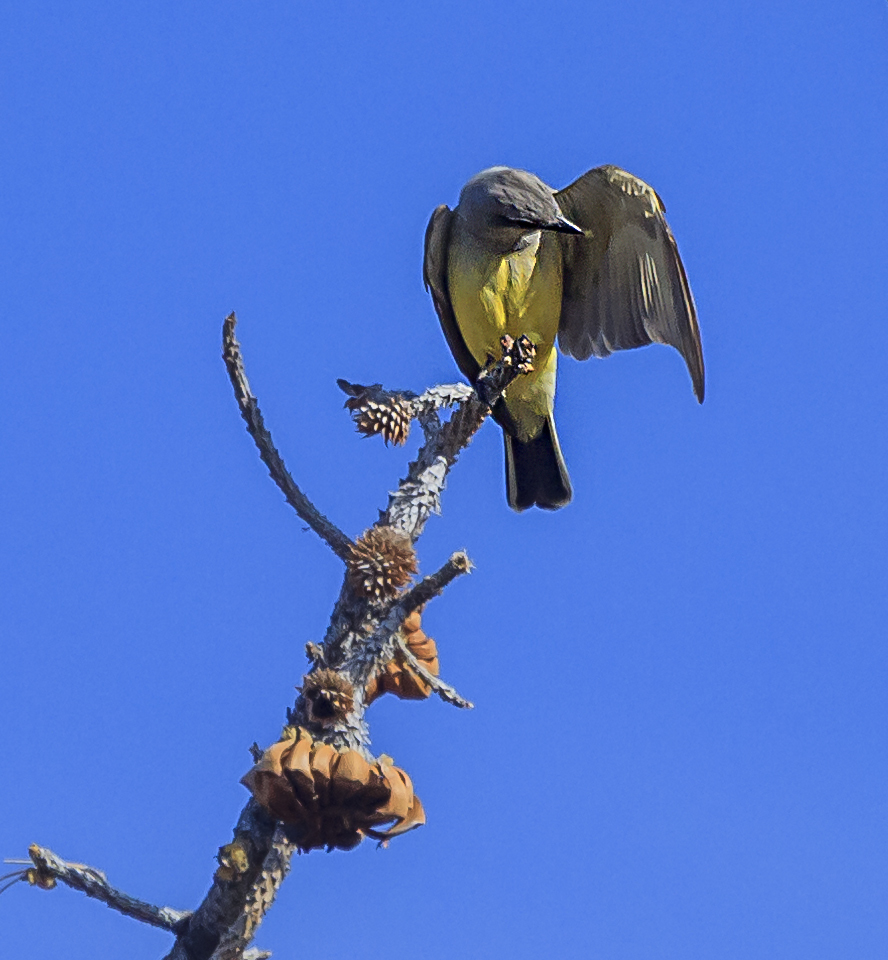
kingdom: Animalia
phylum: Chordata
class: Aves
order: Passeriformes
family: Tyrannidae
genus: Tyrannus
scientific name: Tyrannus verticalis
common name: Western kingbird
